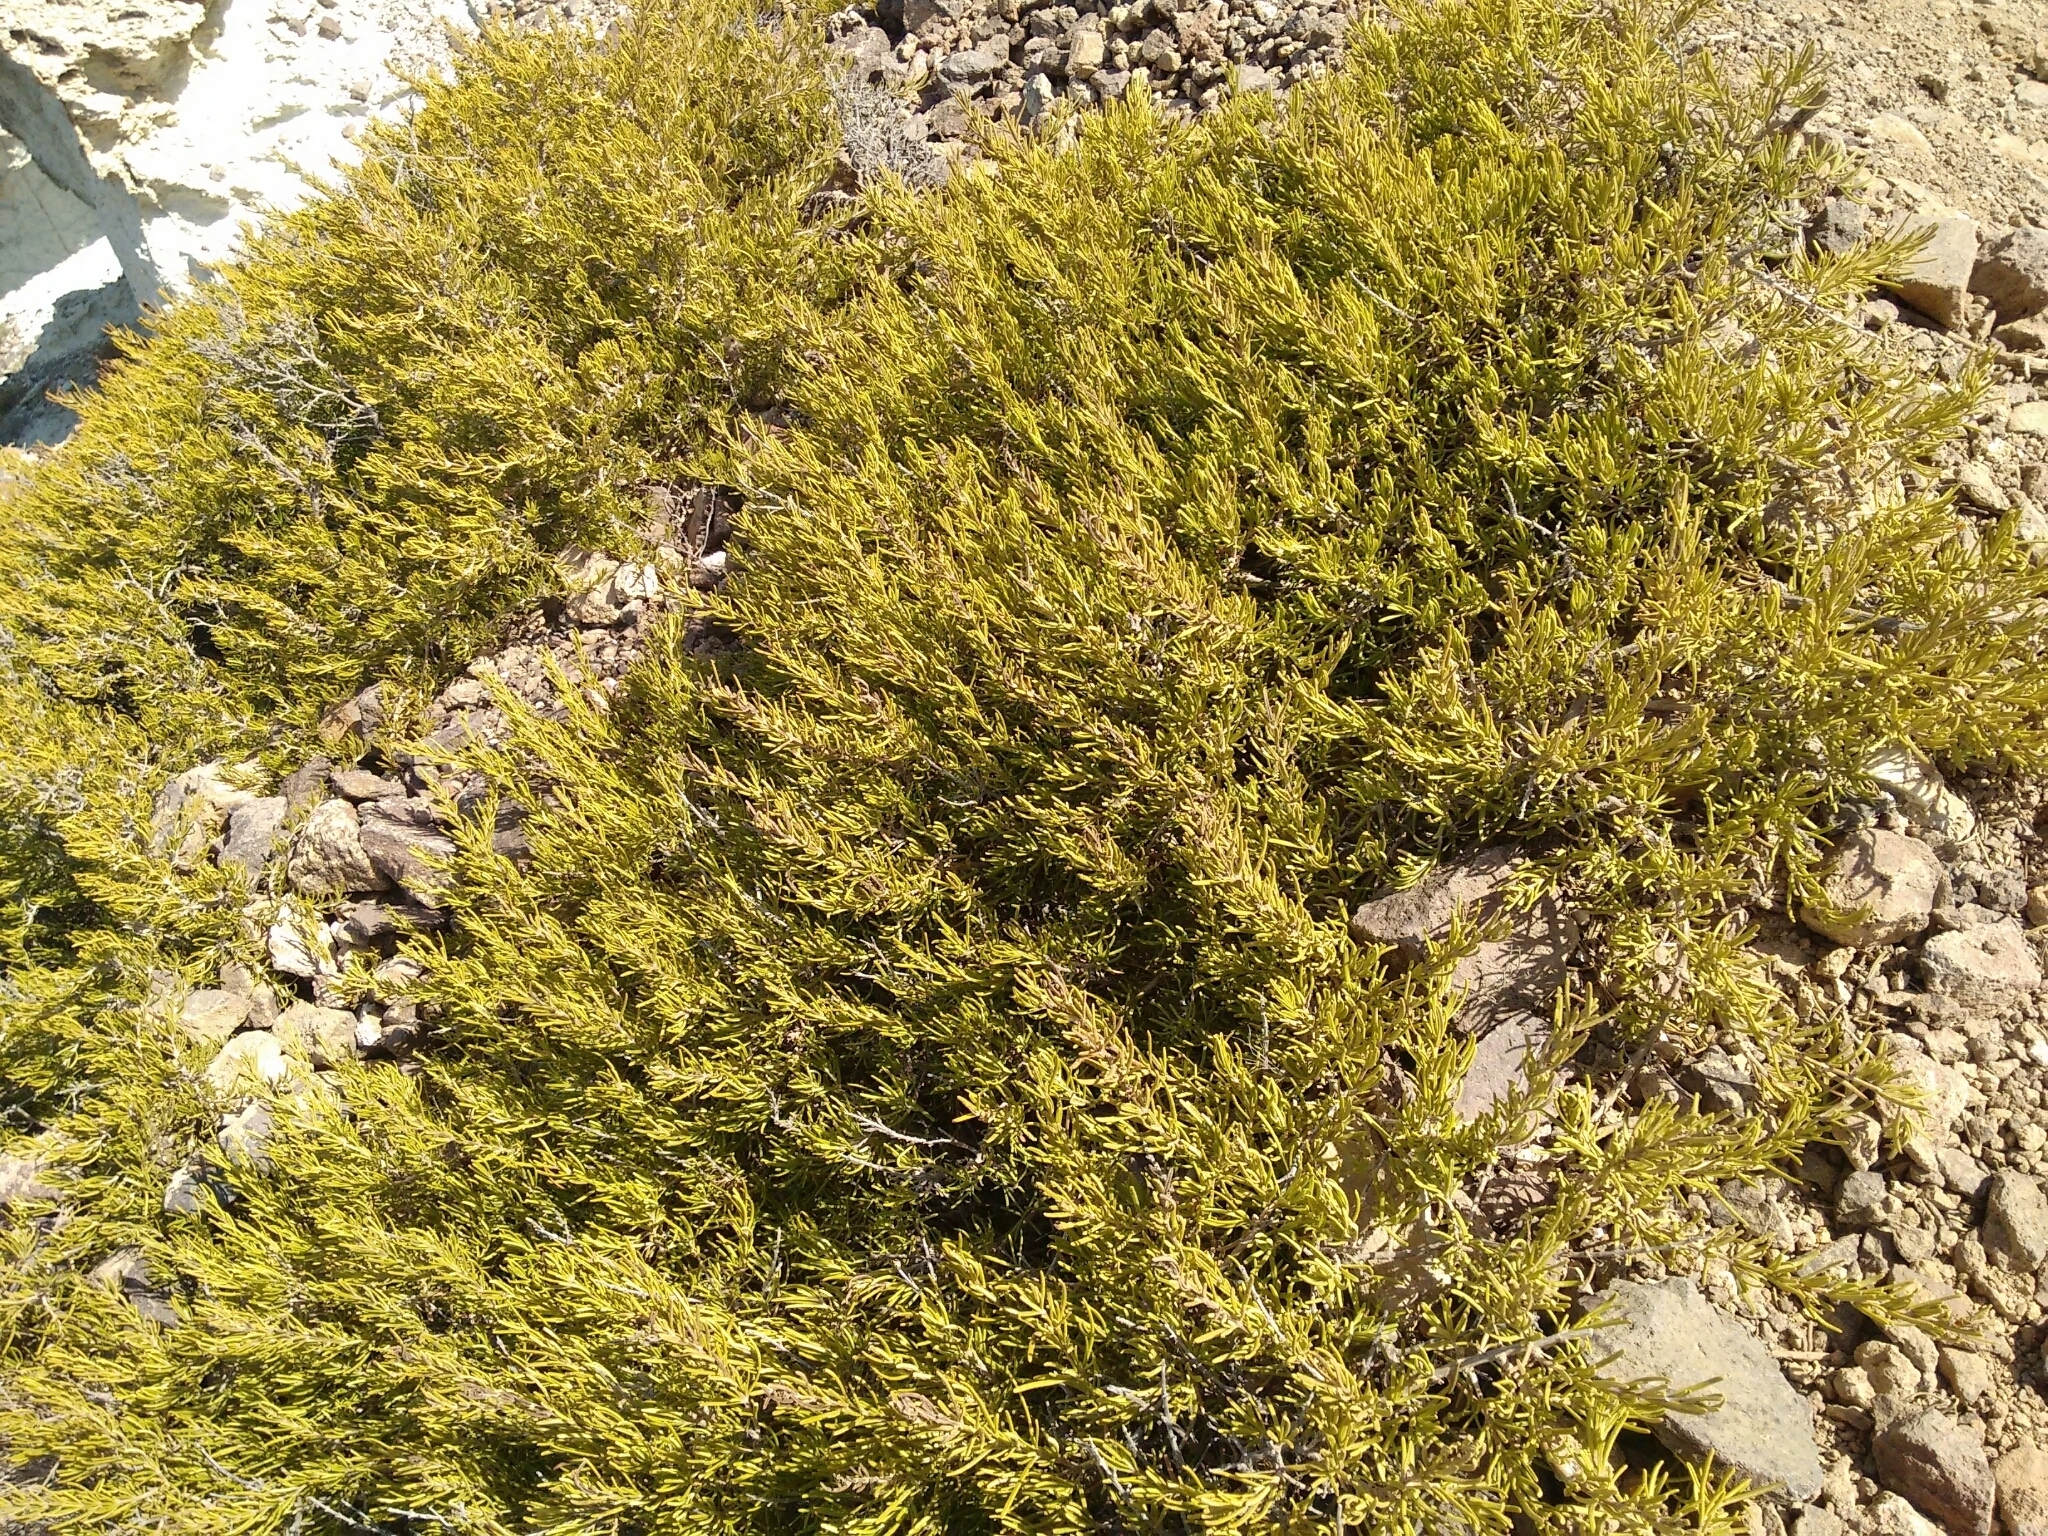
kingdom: Plantae
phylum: Tracheophyta
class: Magnoliopsida
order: Lamiales
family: Lamiaceae
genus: Salvia
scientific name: Salvia rosmarinus
